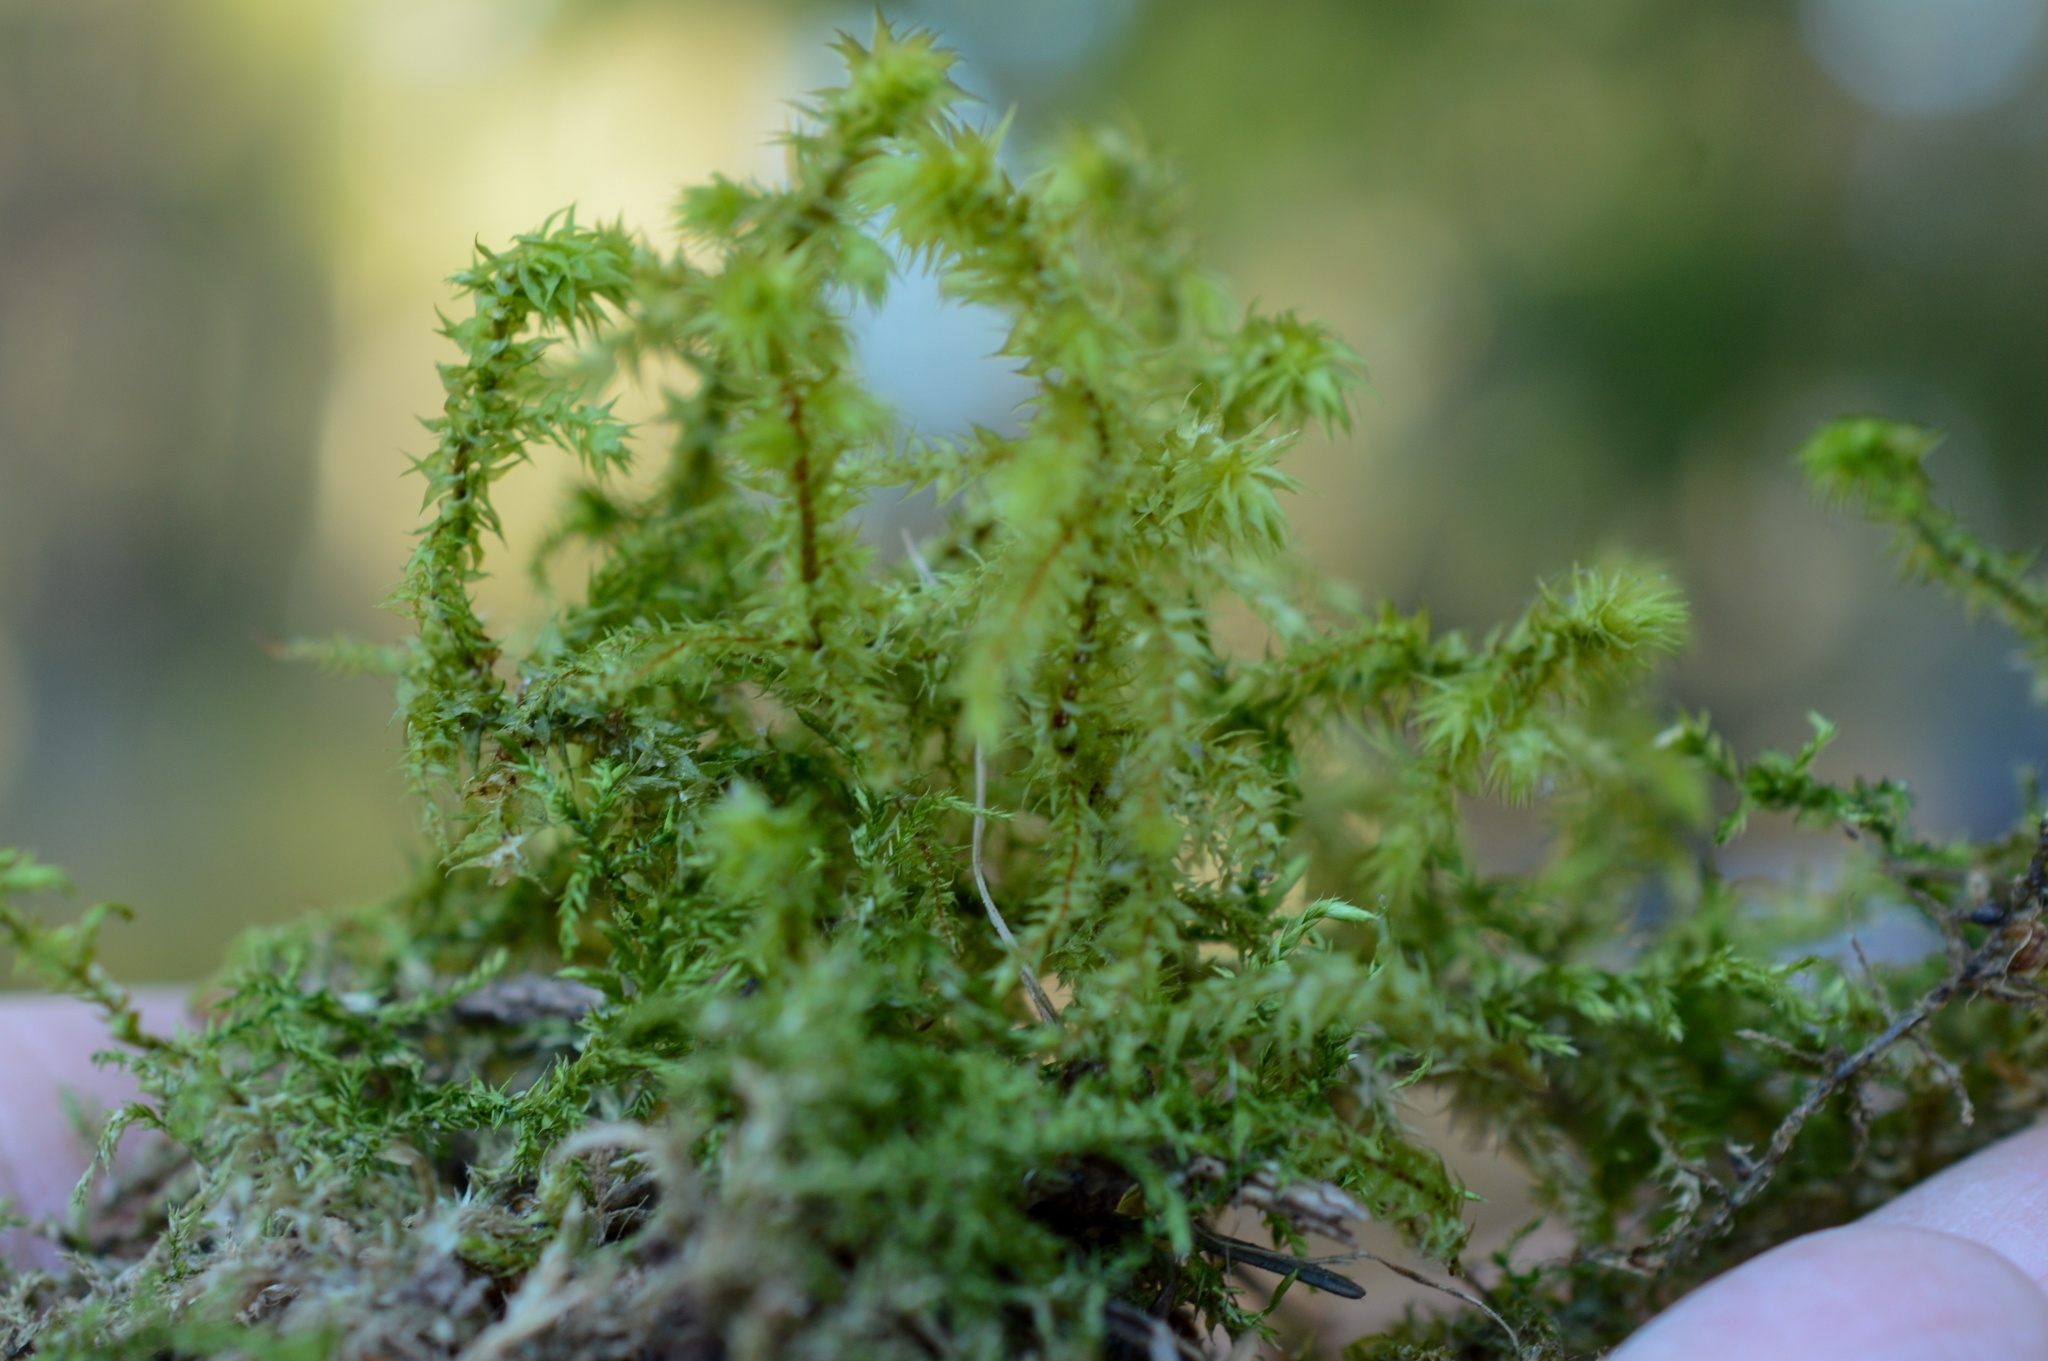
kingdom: Plantae
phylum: Bryophyta
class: Bryopsida
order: Hypnales
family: Hylocomiaceae
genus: Hylocomiadelphus
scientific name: Hylocomiadelphus triquetrus
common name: Rough goose neck moss
